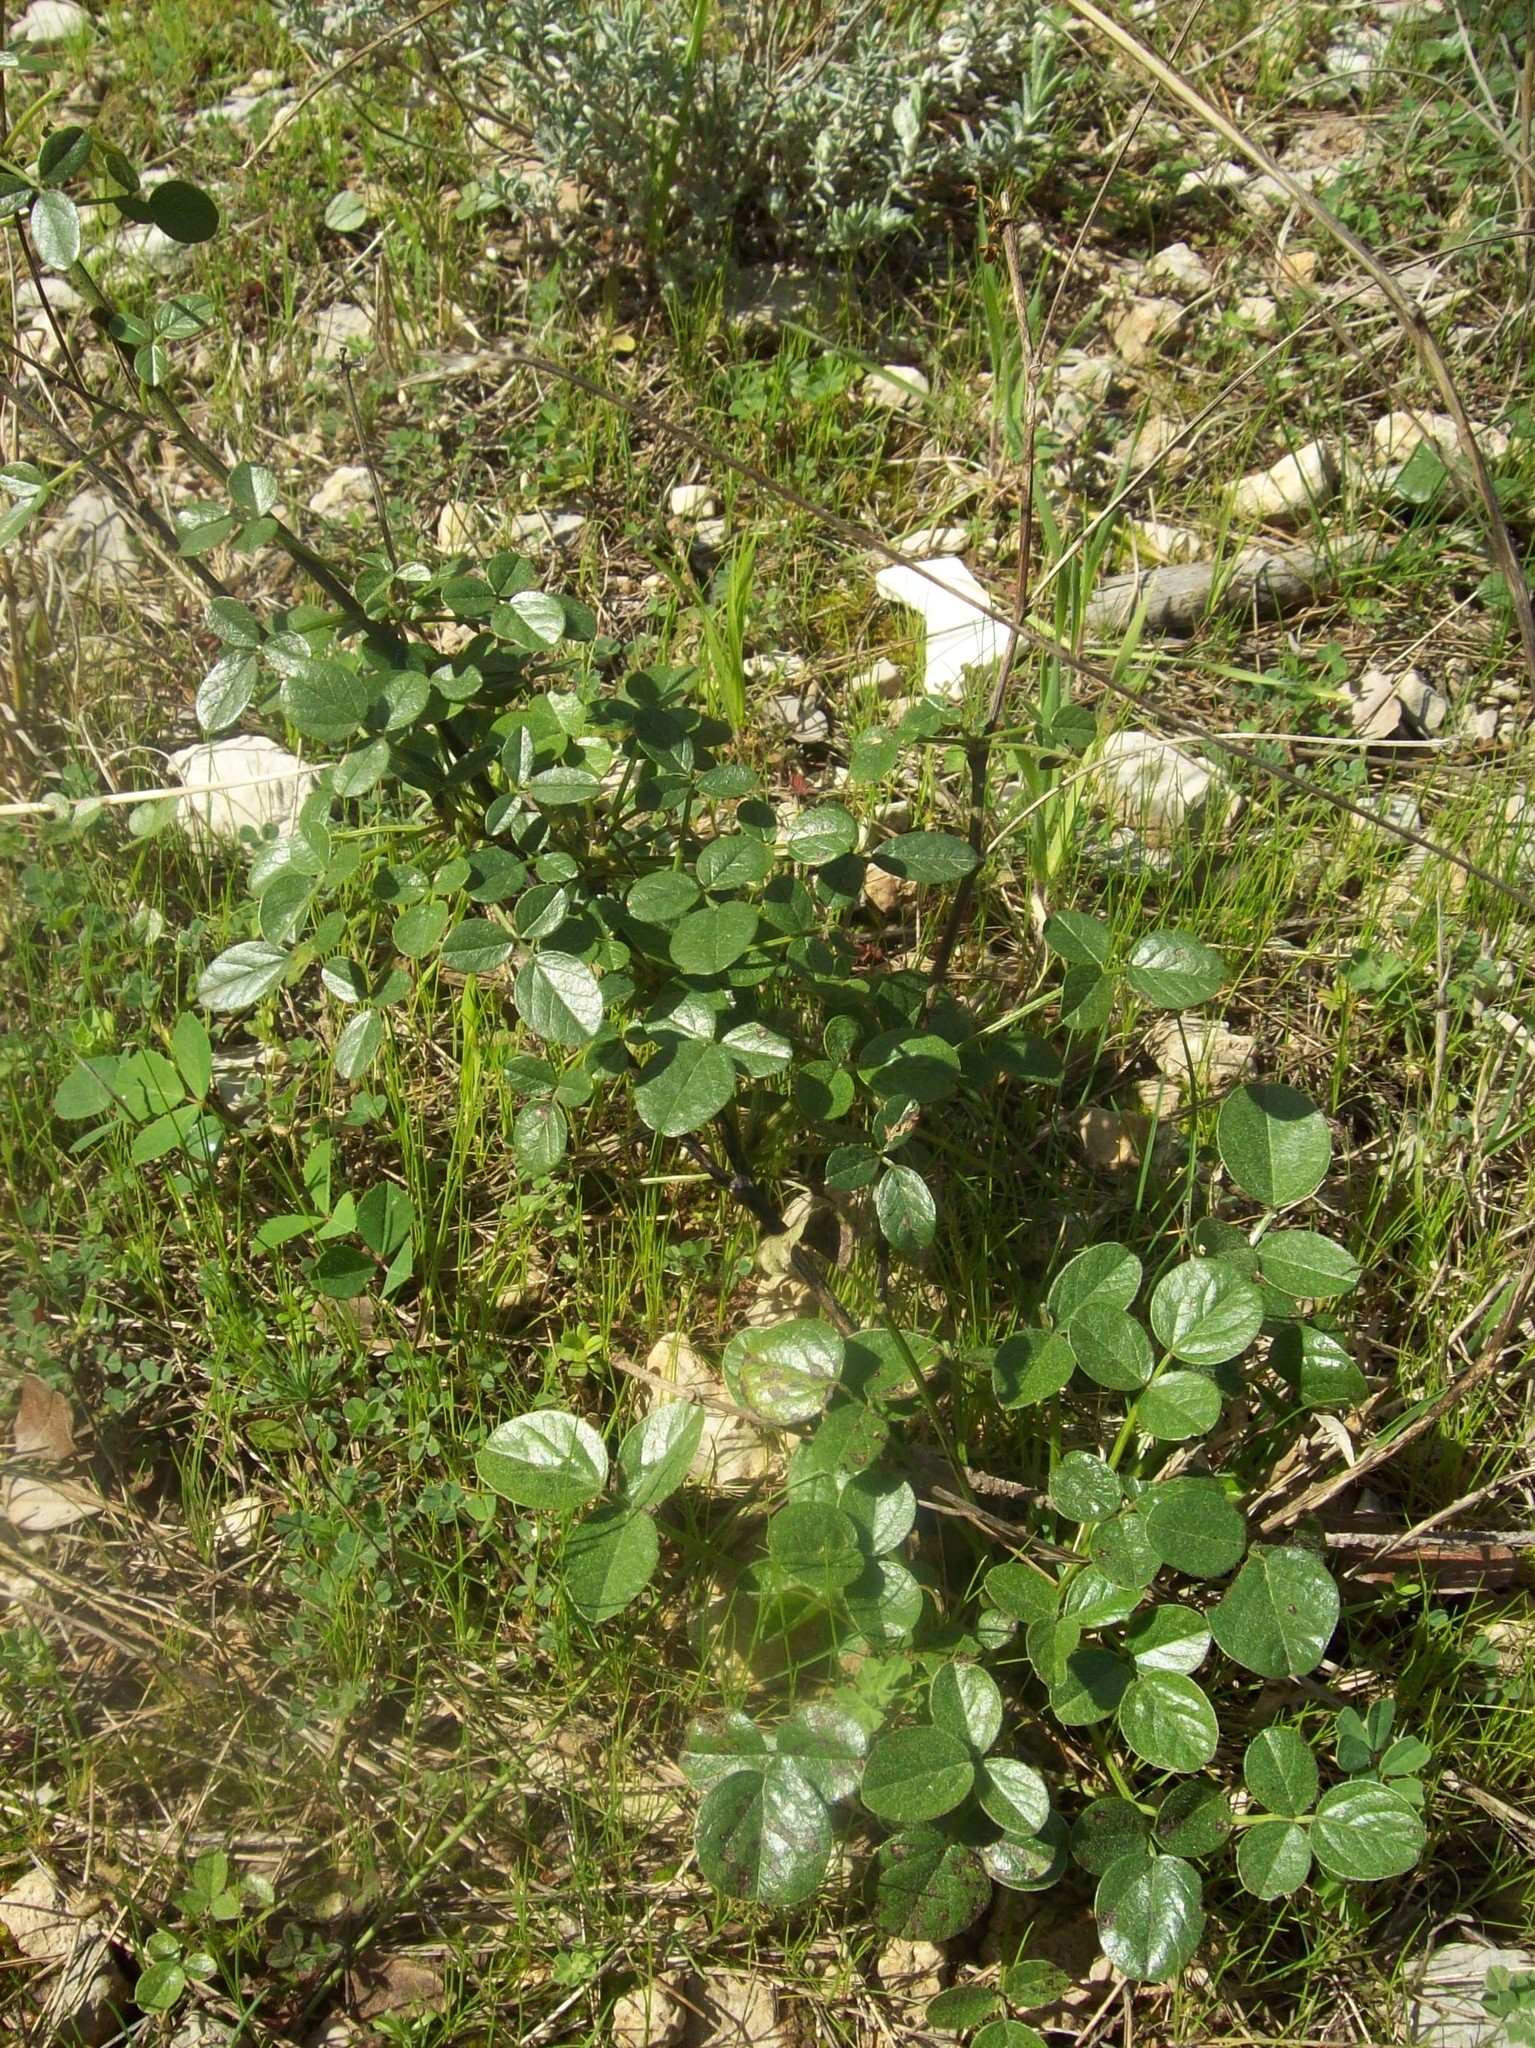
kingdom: Plantae
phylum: Tracheophyta
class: Magnoliopsida
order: Fabales
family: Fabaceae
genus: Bituminaria
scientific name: Bituminaria bituminosa
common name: Arabian pea
